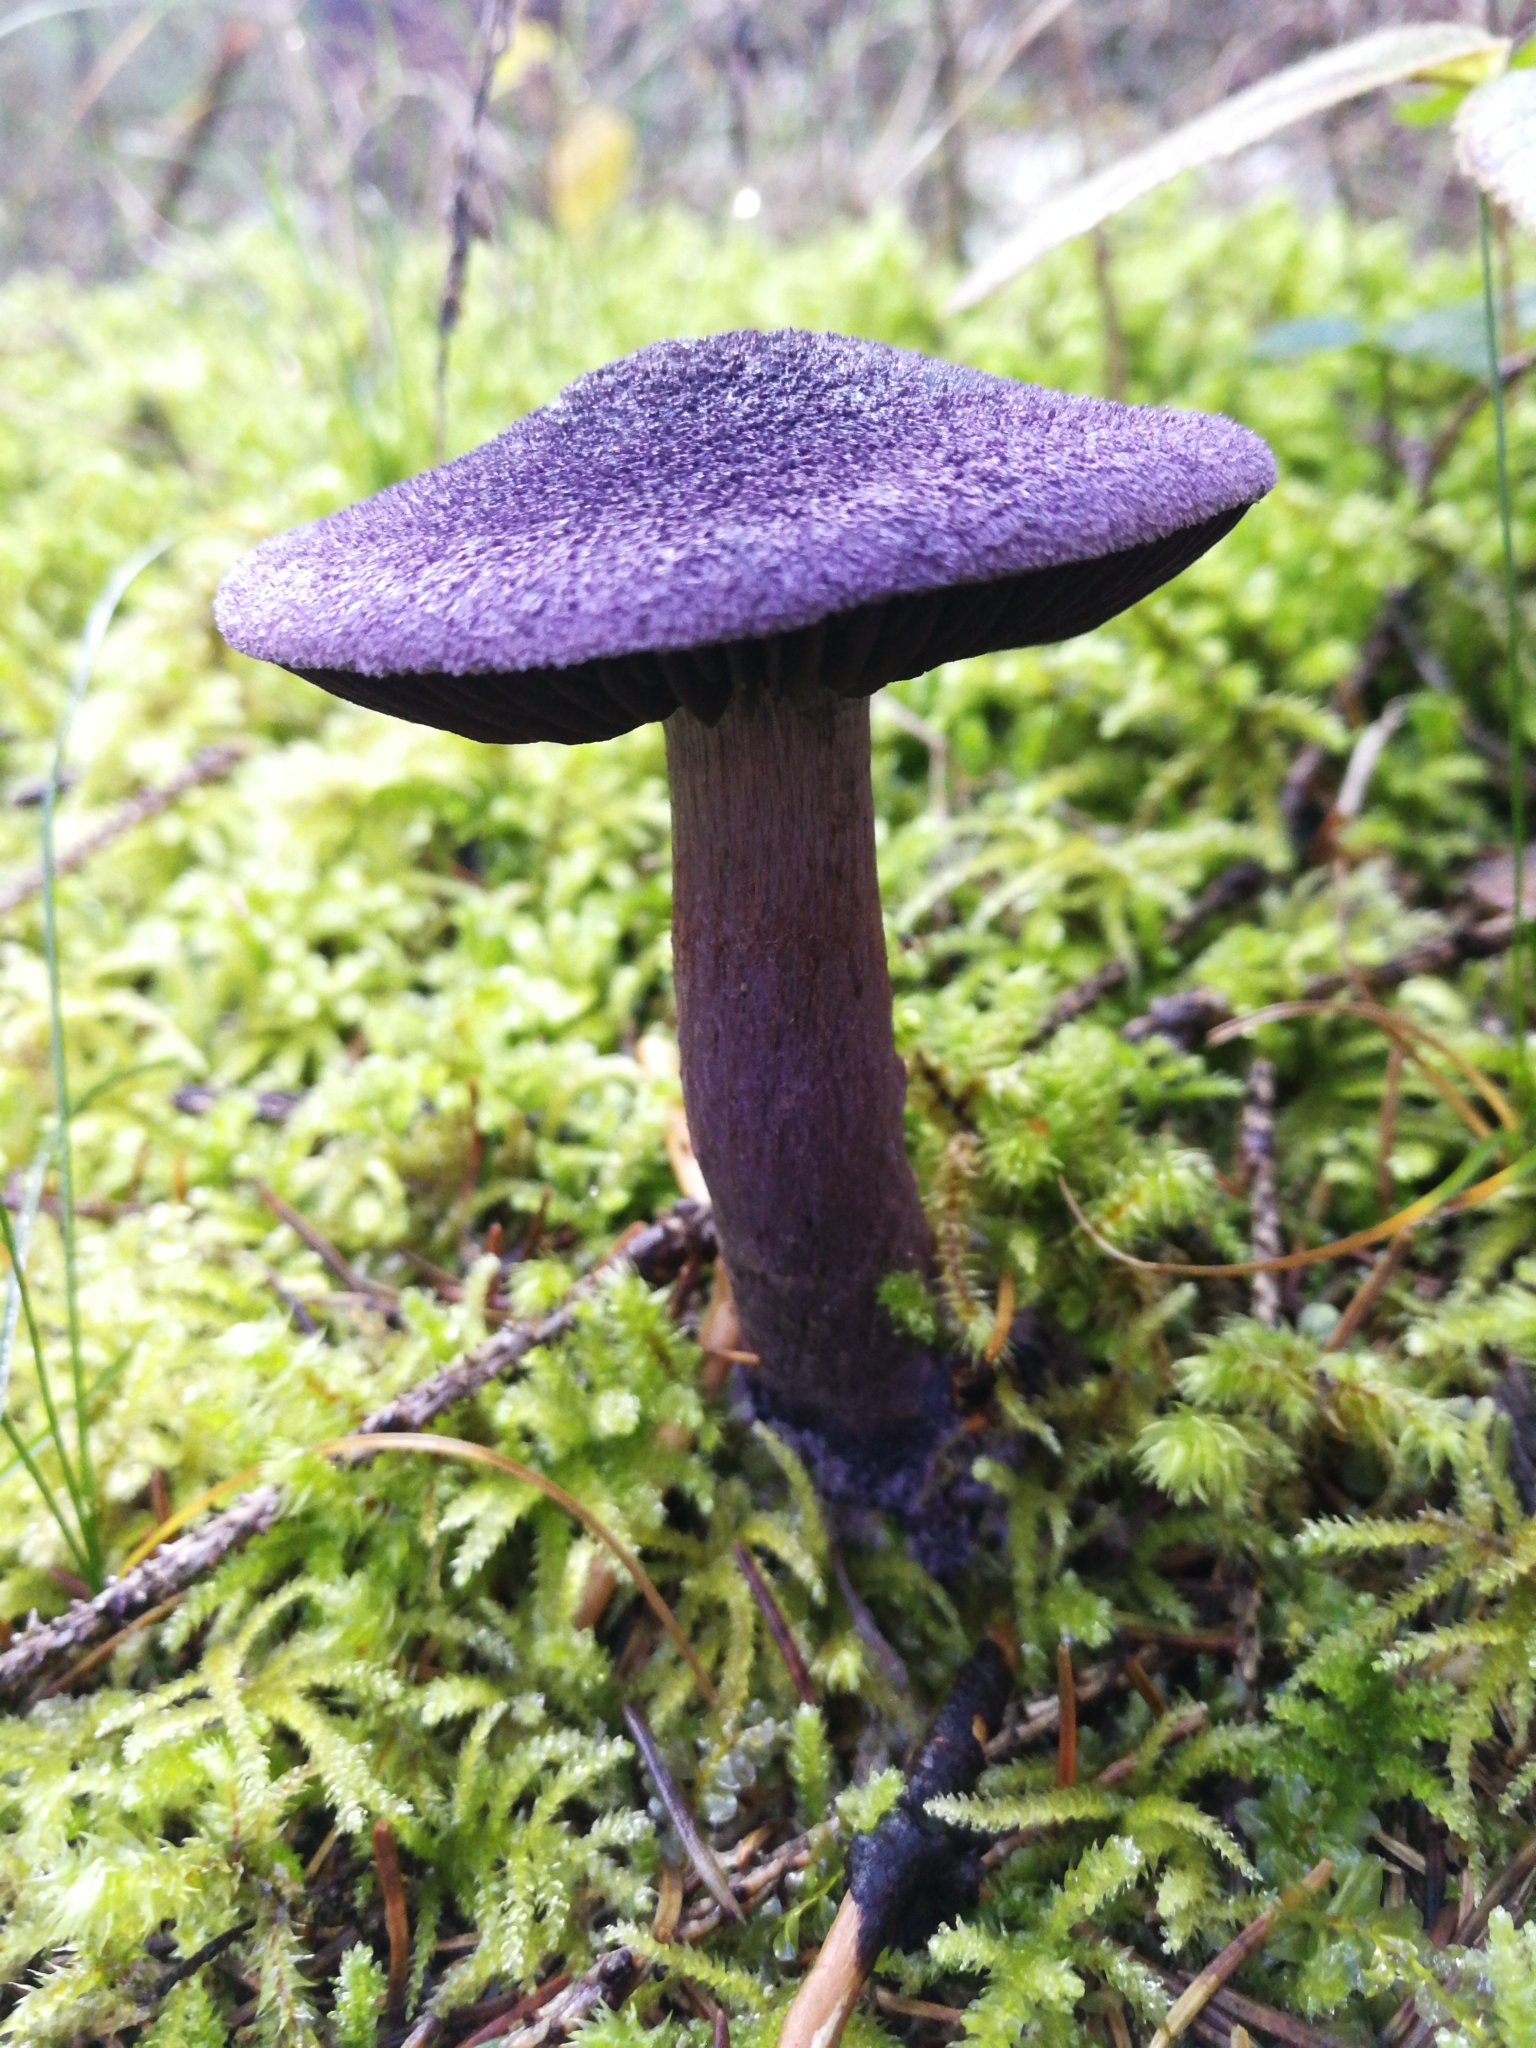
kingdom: Fungi
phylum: Basidiomycota
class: Agaricomycetes
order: Agaricales
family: Cortinariaceae
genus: Cortinarius
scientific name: Cortinarius violaceus
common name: Violet webcap
